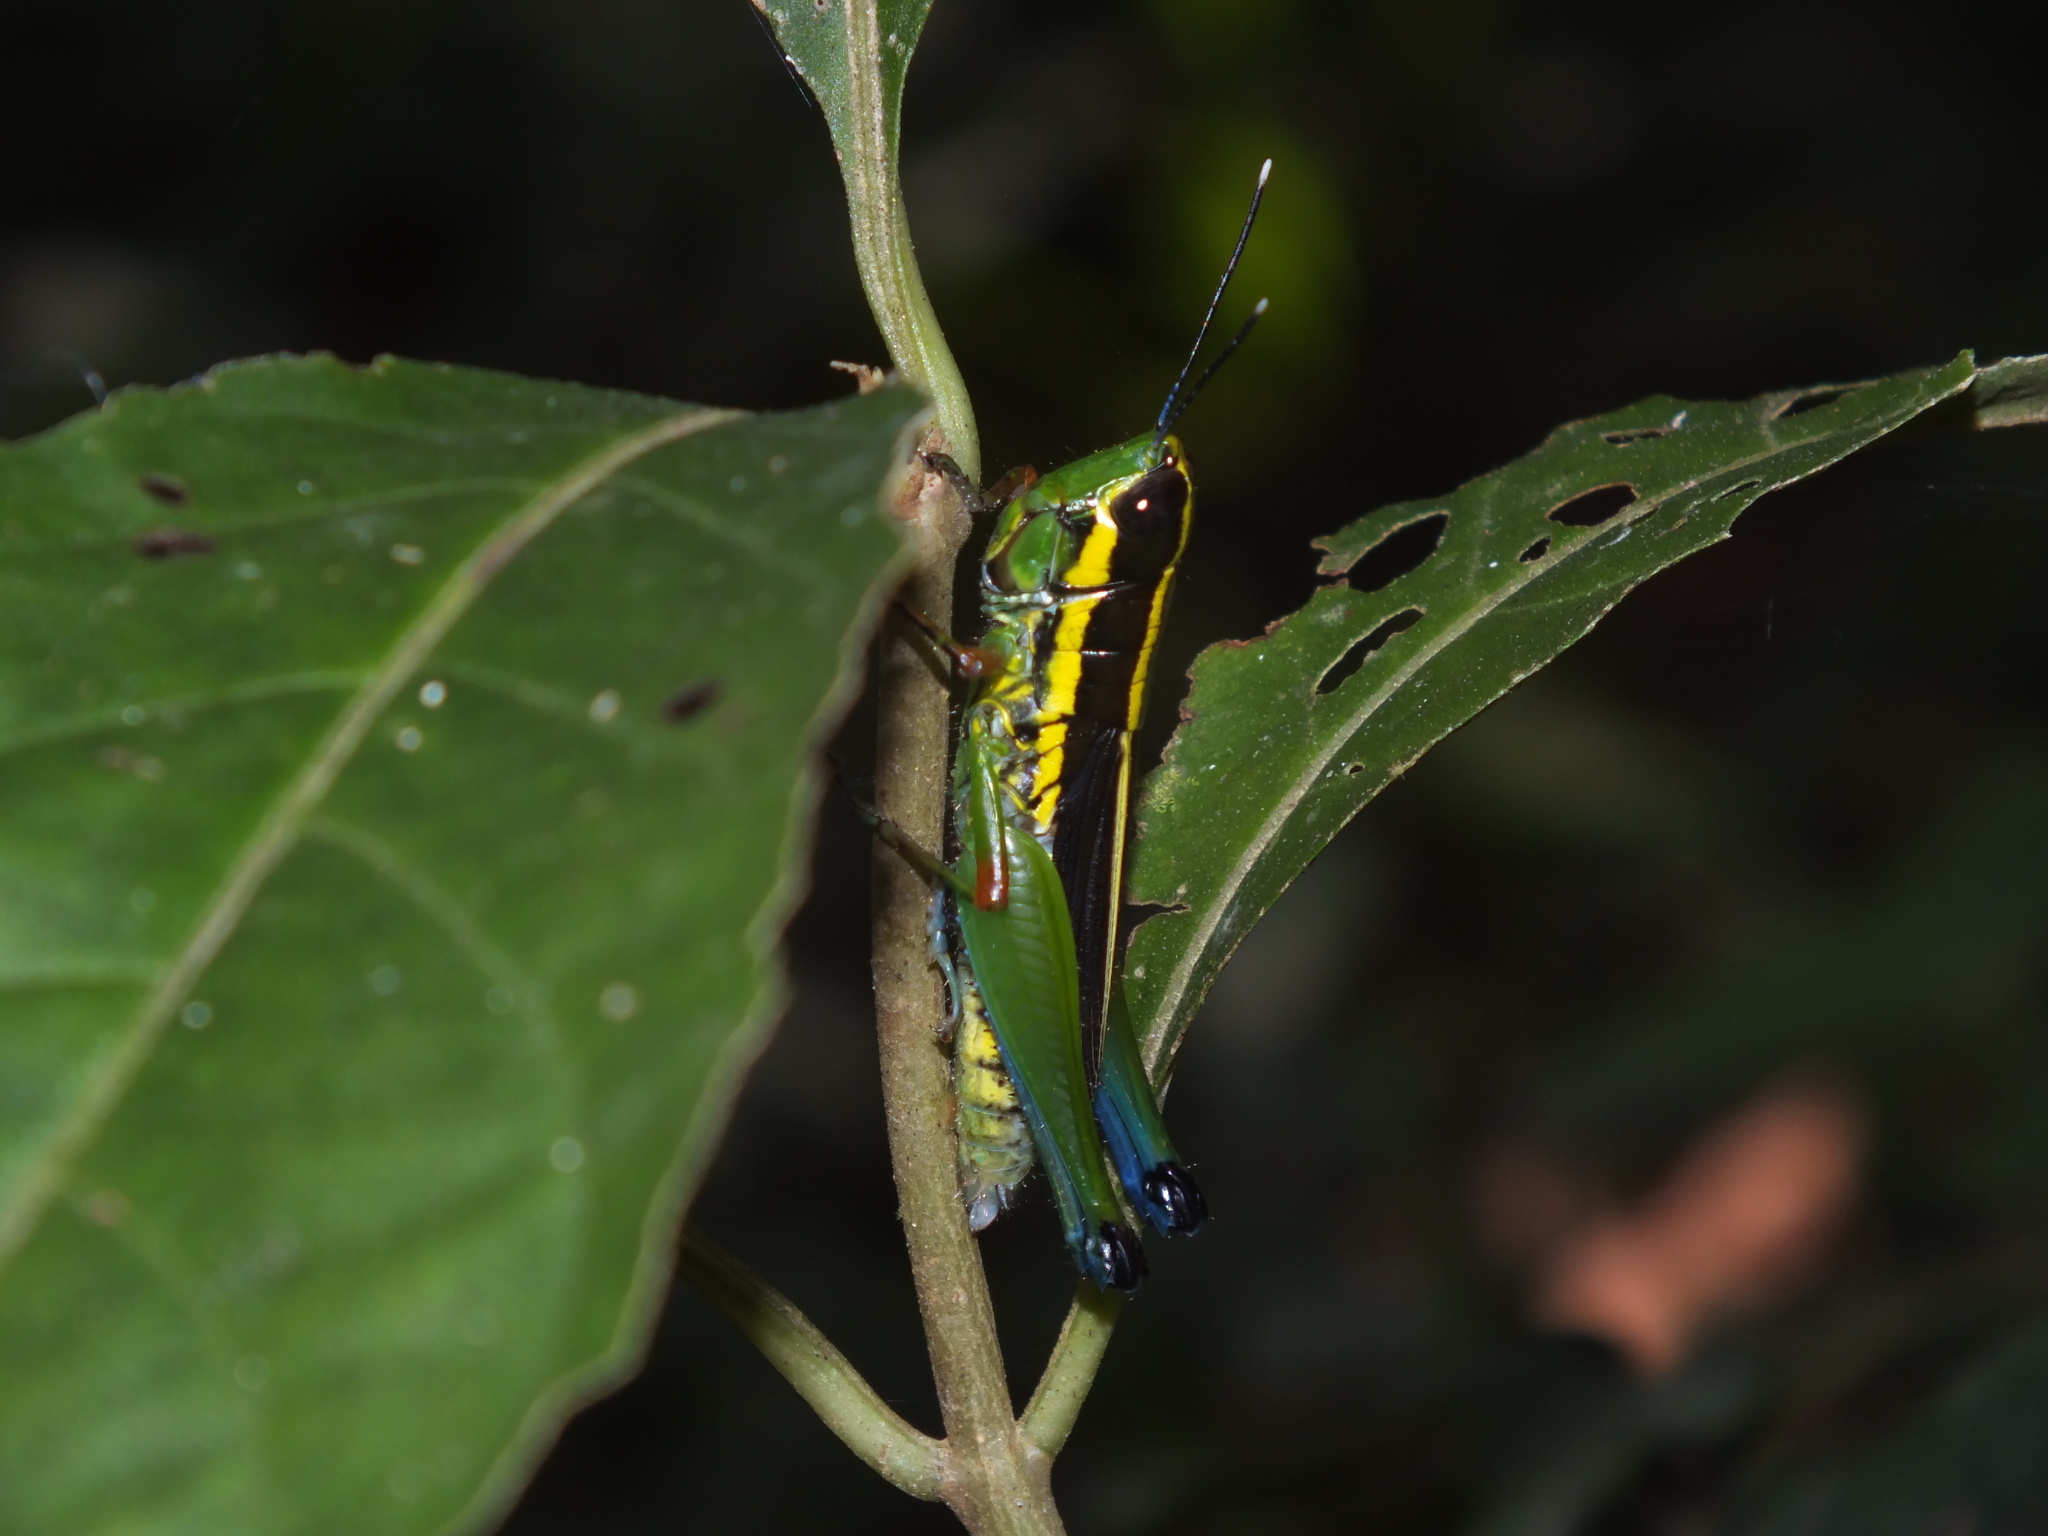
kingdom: Animalia
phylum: Arthropoda
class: Insecta
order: Orthoptera
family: Acrididae
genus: Mastusia
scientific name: Mastusia quadricarinata
